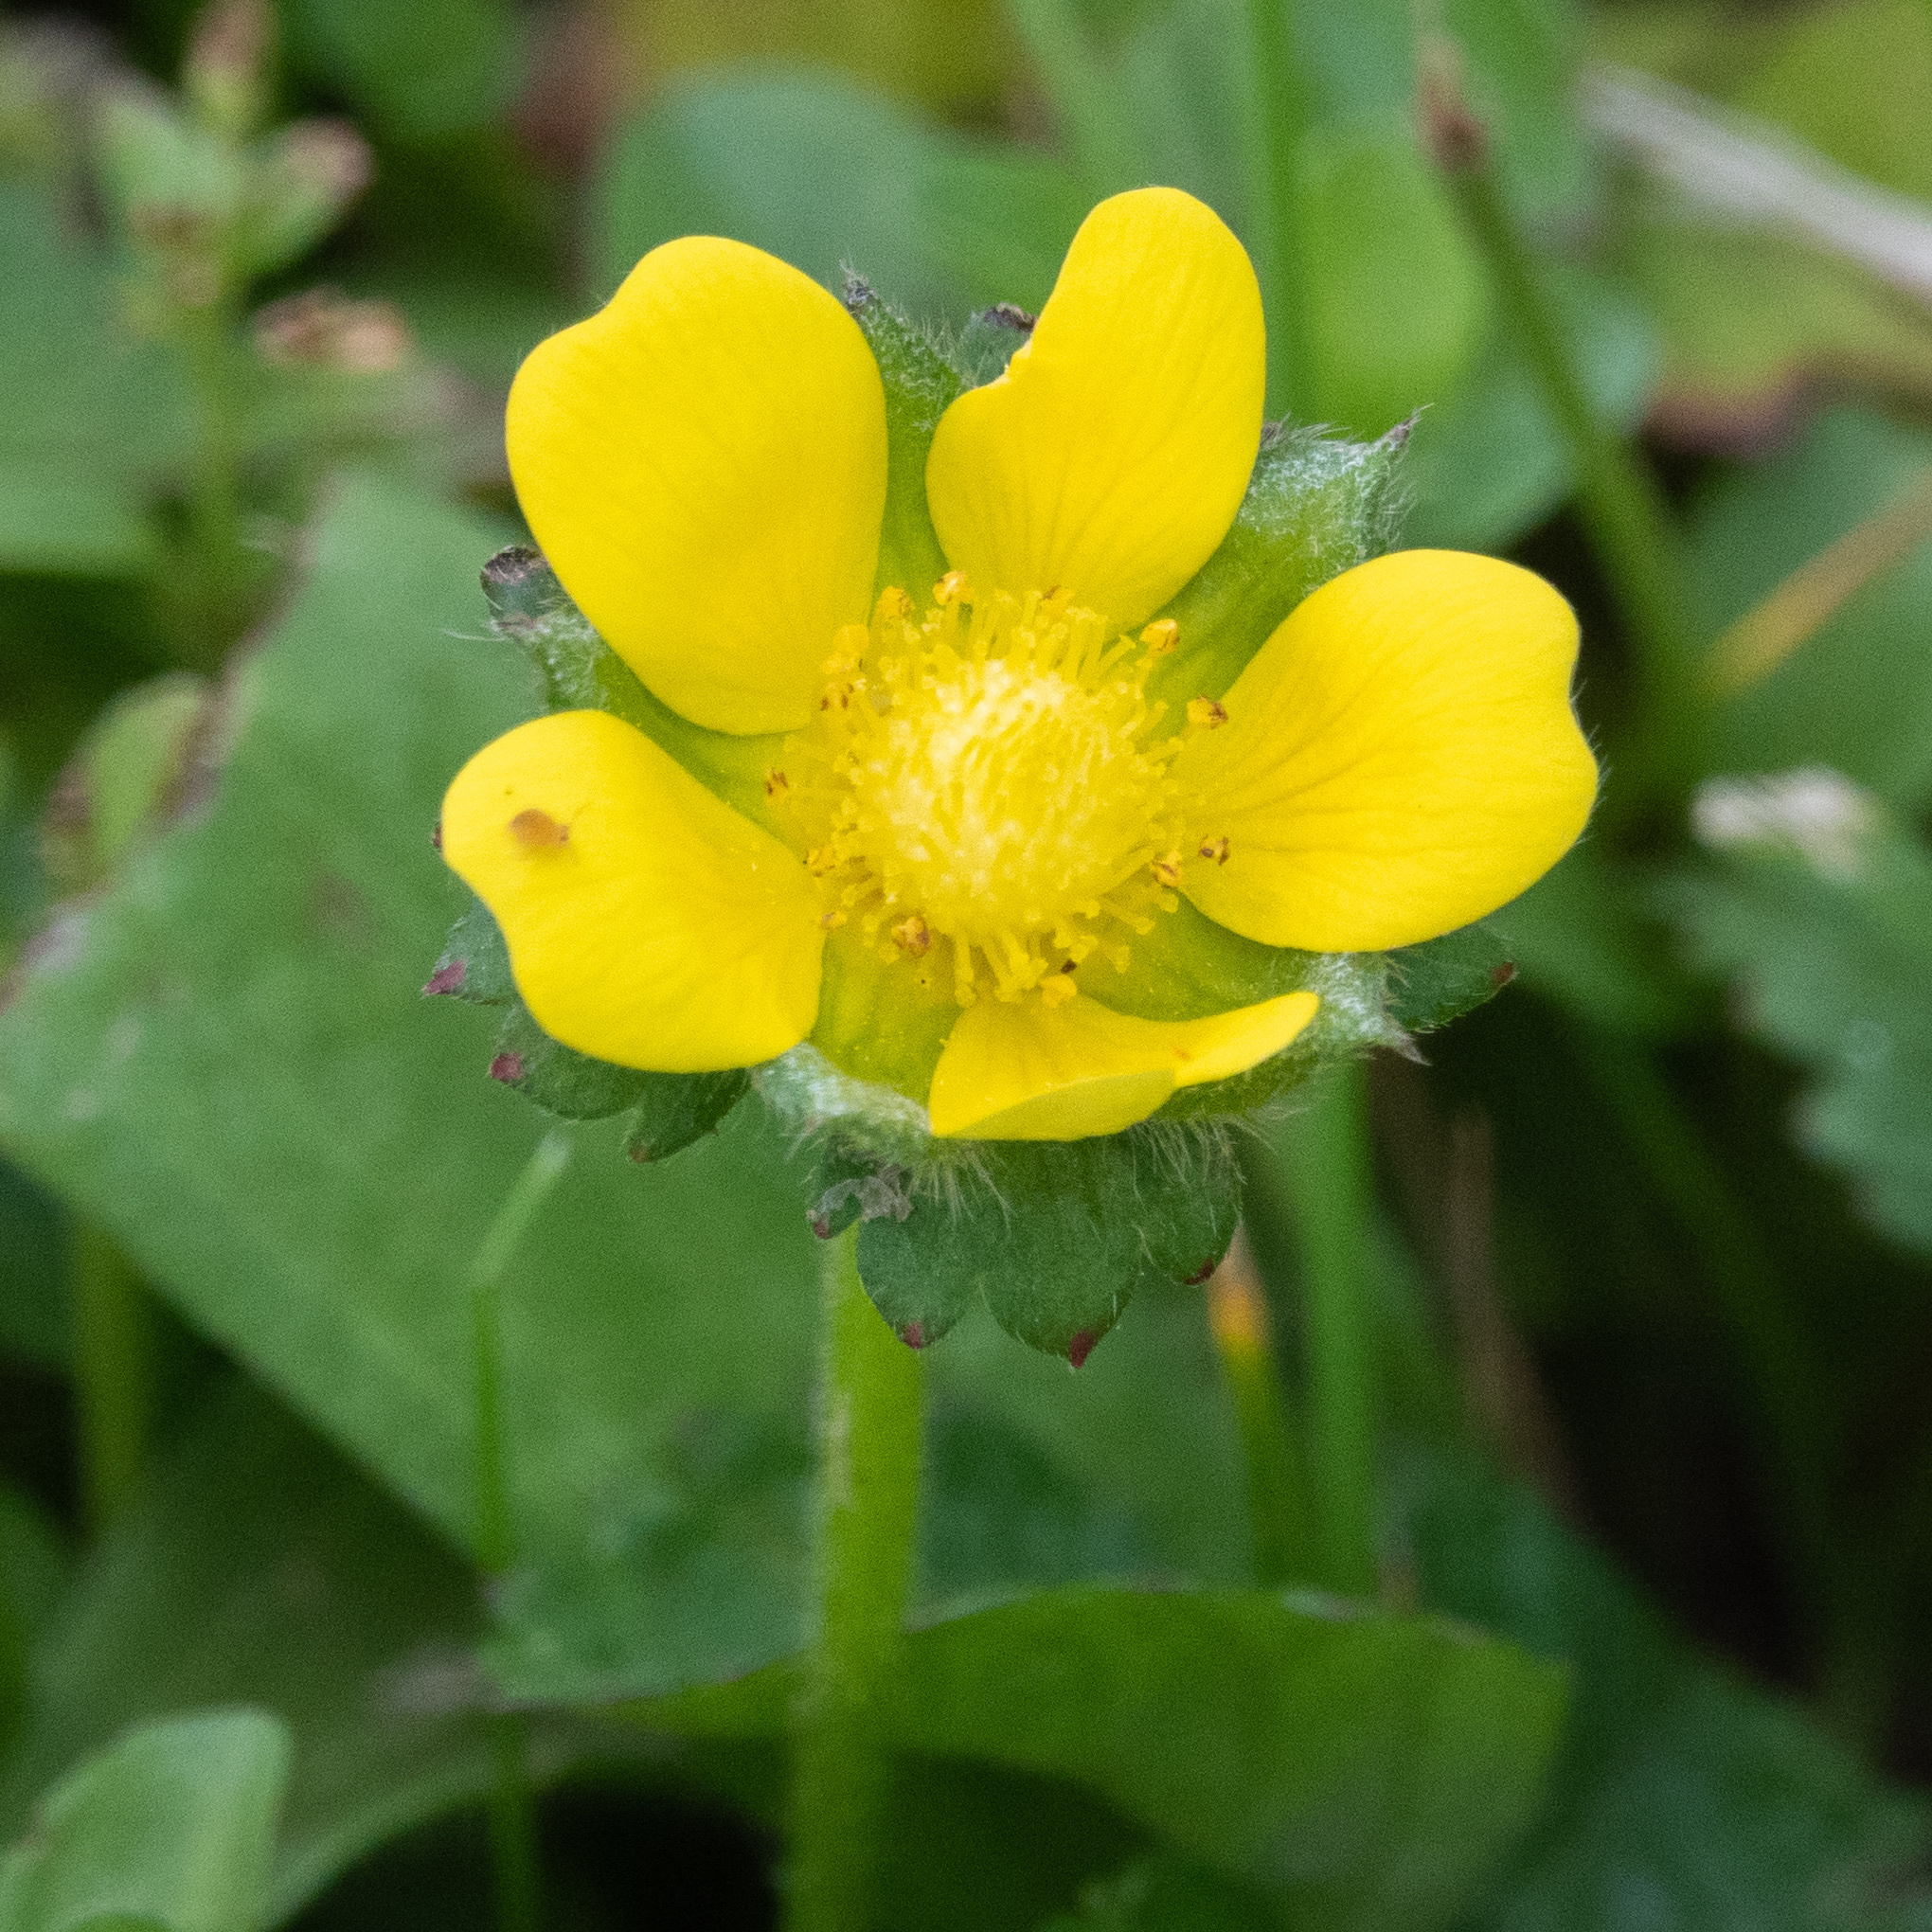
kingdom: Plantae
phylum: Tracheophyta
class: Magnoliopsida
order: Rosales
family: Rosaceae
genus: Potentilla
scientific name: Potentilla indica
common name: Yellow-flowered strawberry
